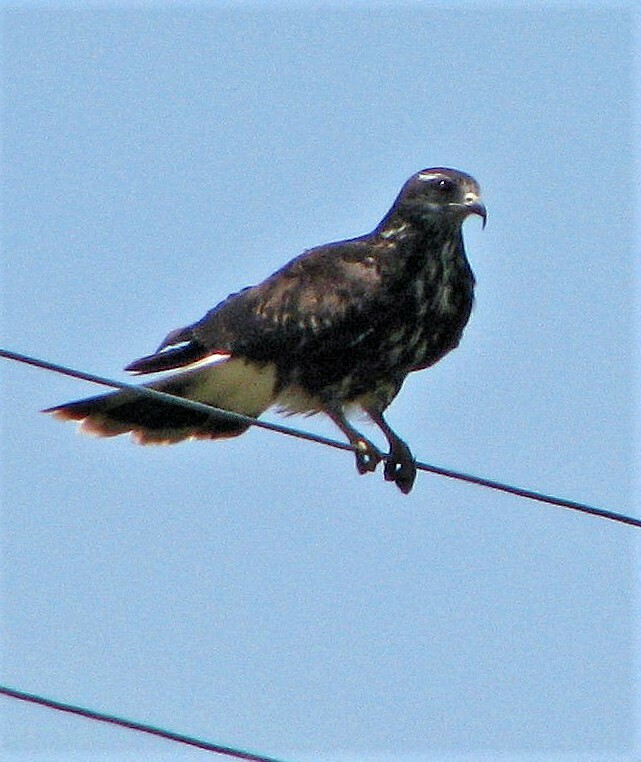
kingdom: Animalia
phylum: Chordata
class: Aves
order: Accipitriformes
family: Accipitridae
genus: Rostrhamus
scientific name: Rostrhamus sociabilis
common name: Snail kite
